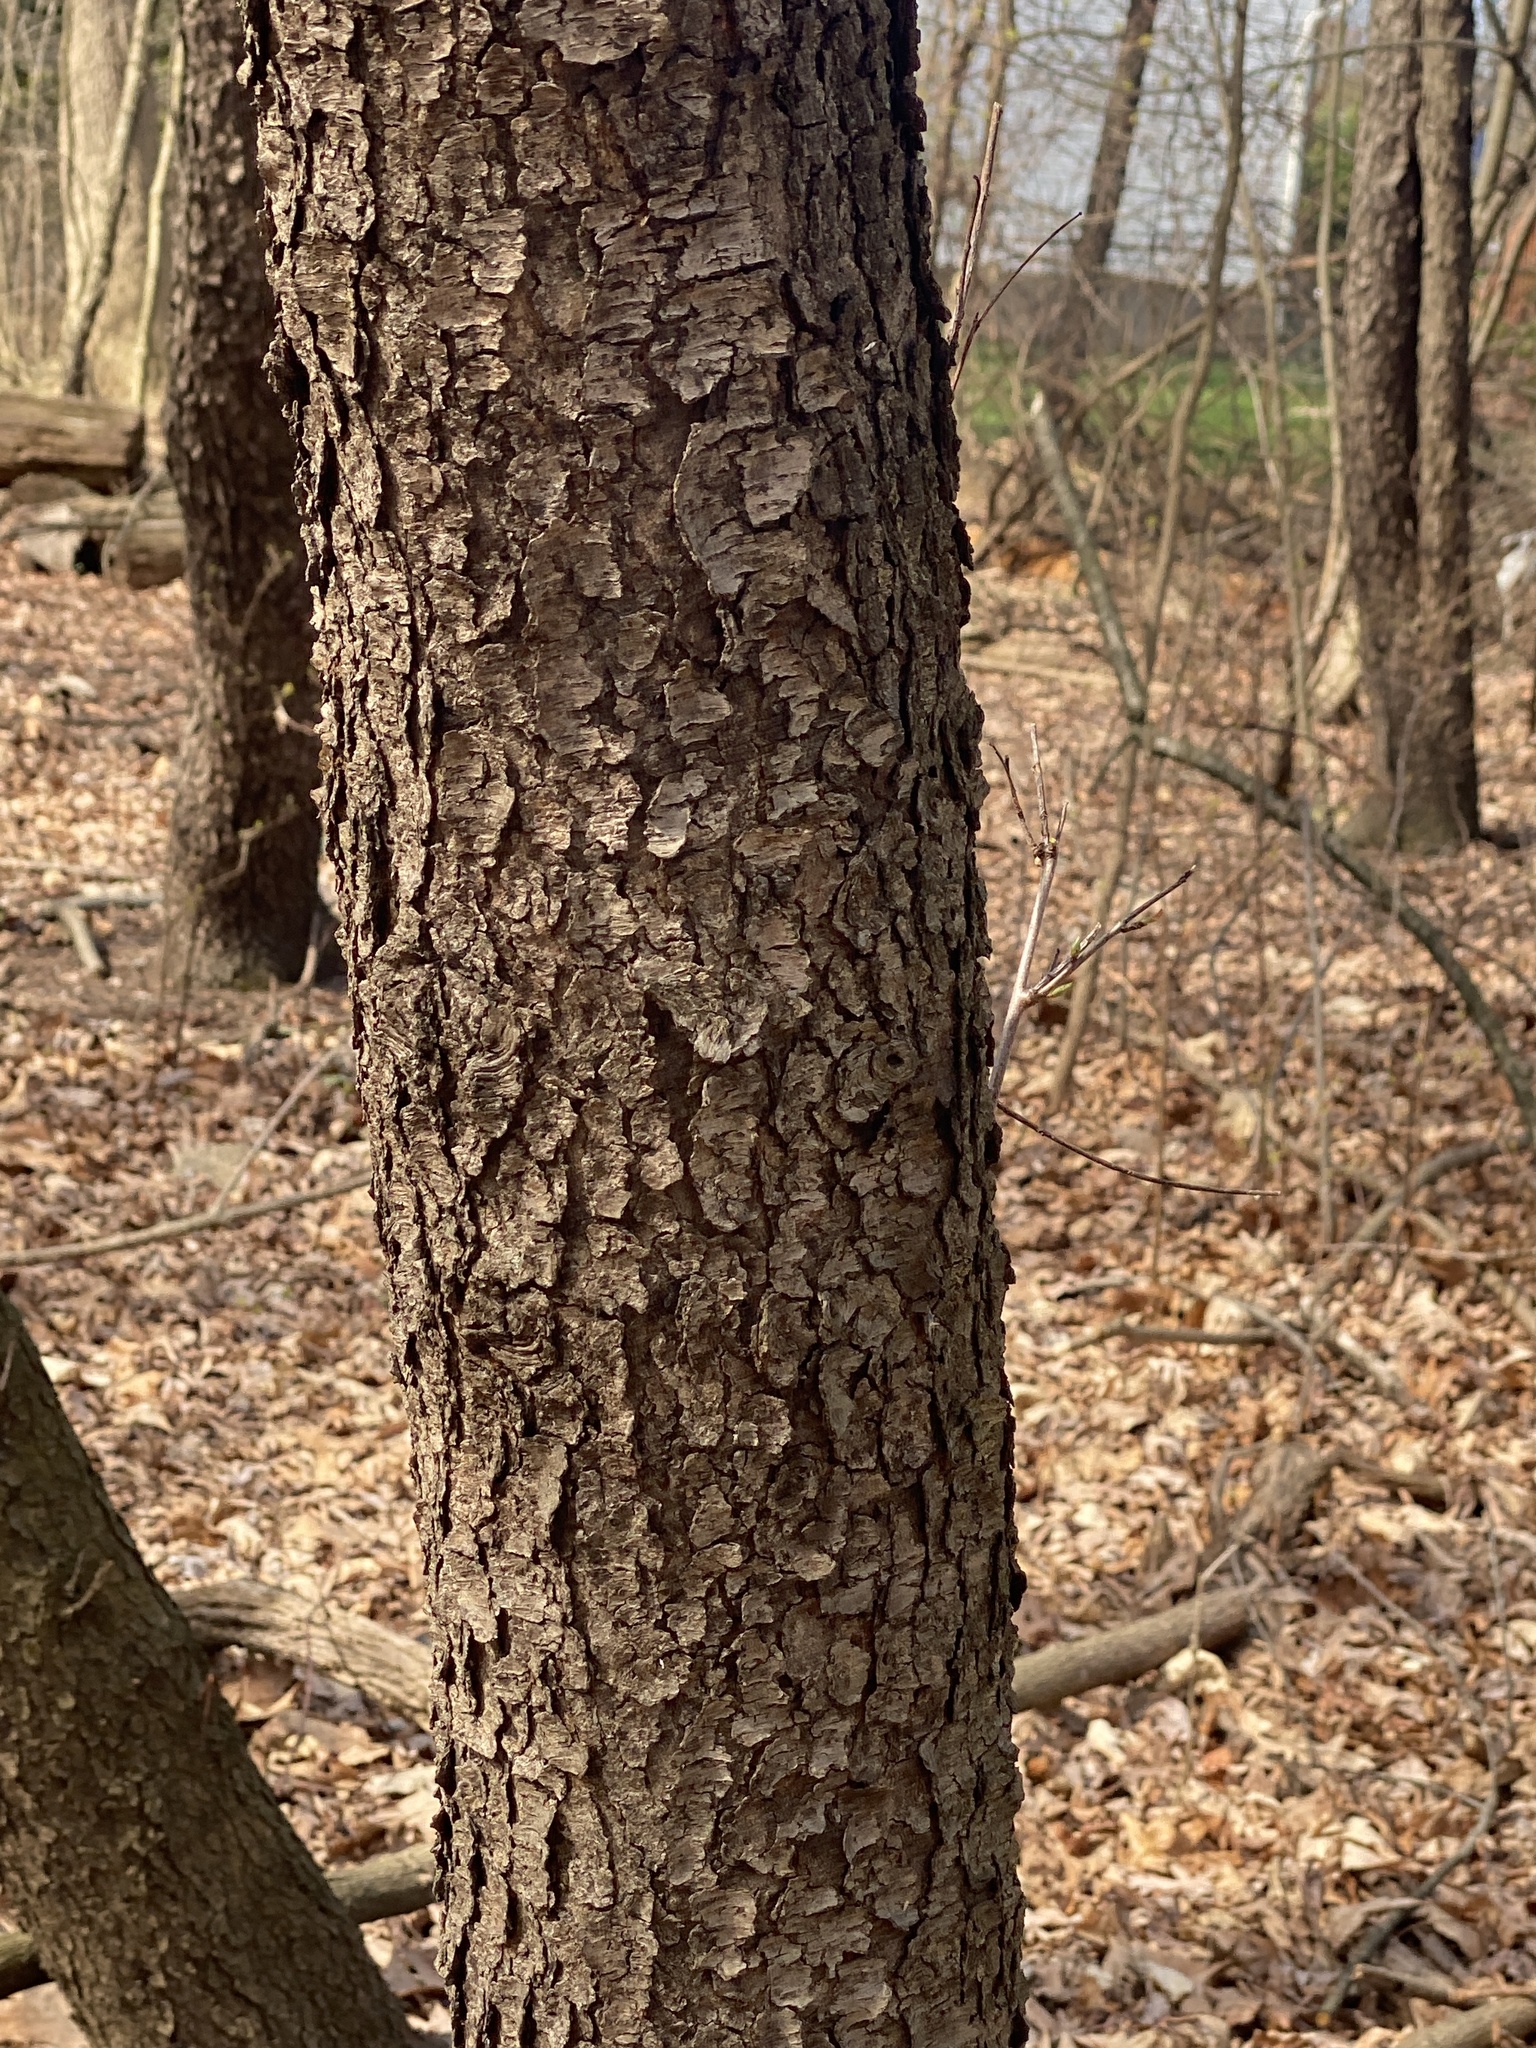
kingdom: Plantae
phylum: Tracheophyta
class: Magnoliopsida
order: Rosales
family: Rosaceae
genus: Prunus
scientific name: Prunus serotina
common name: Black cherry
